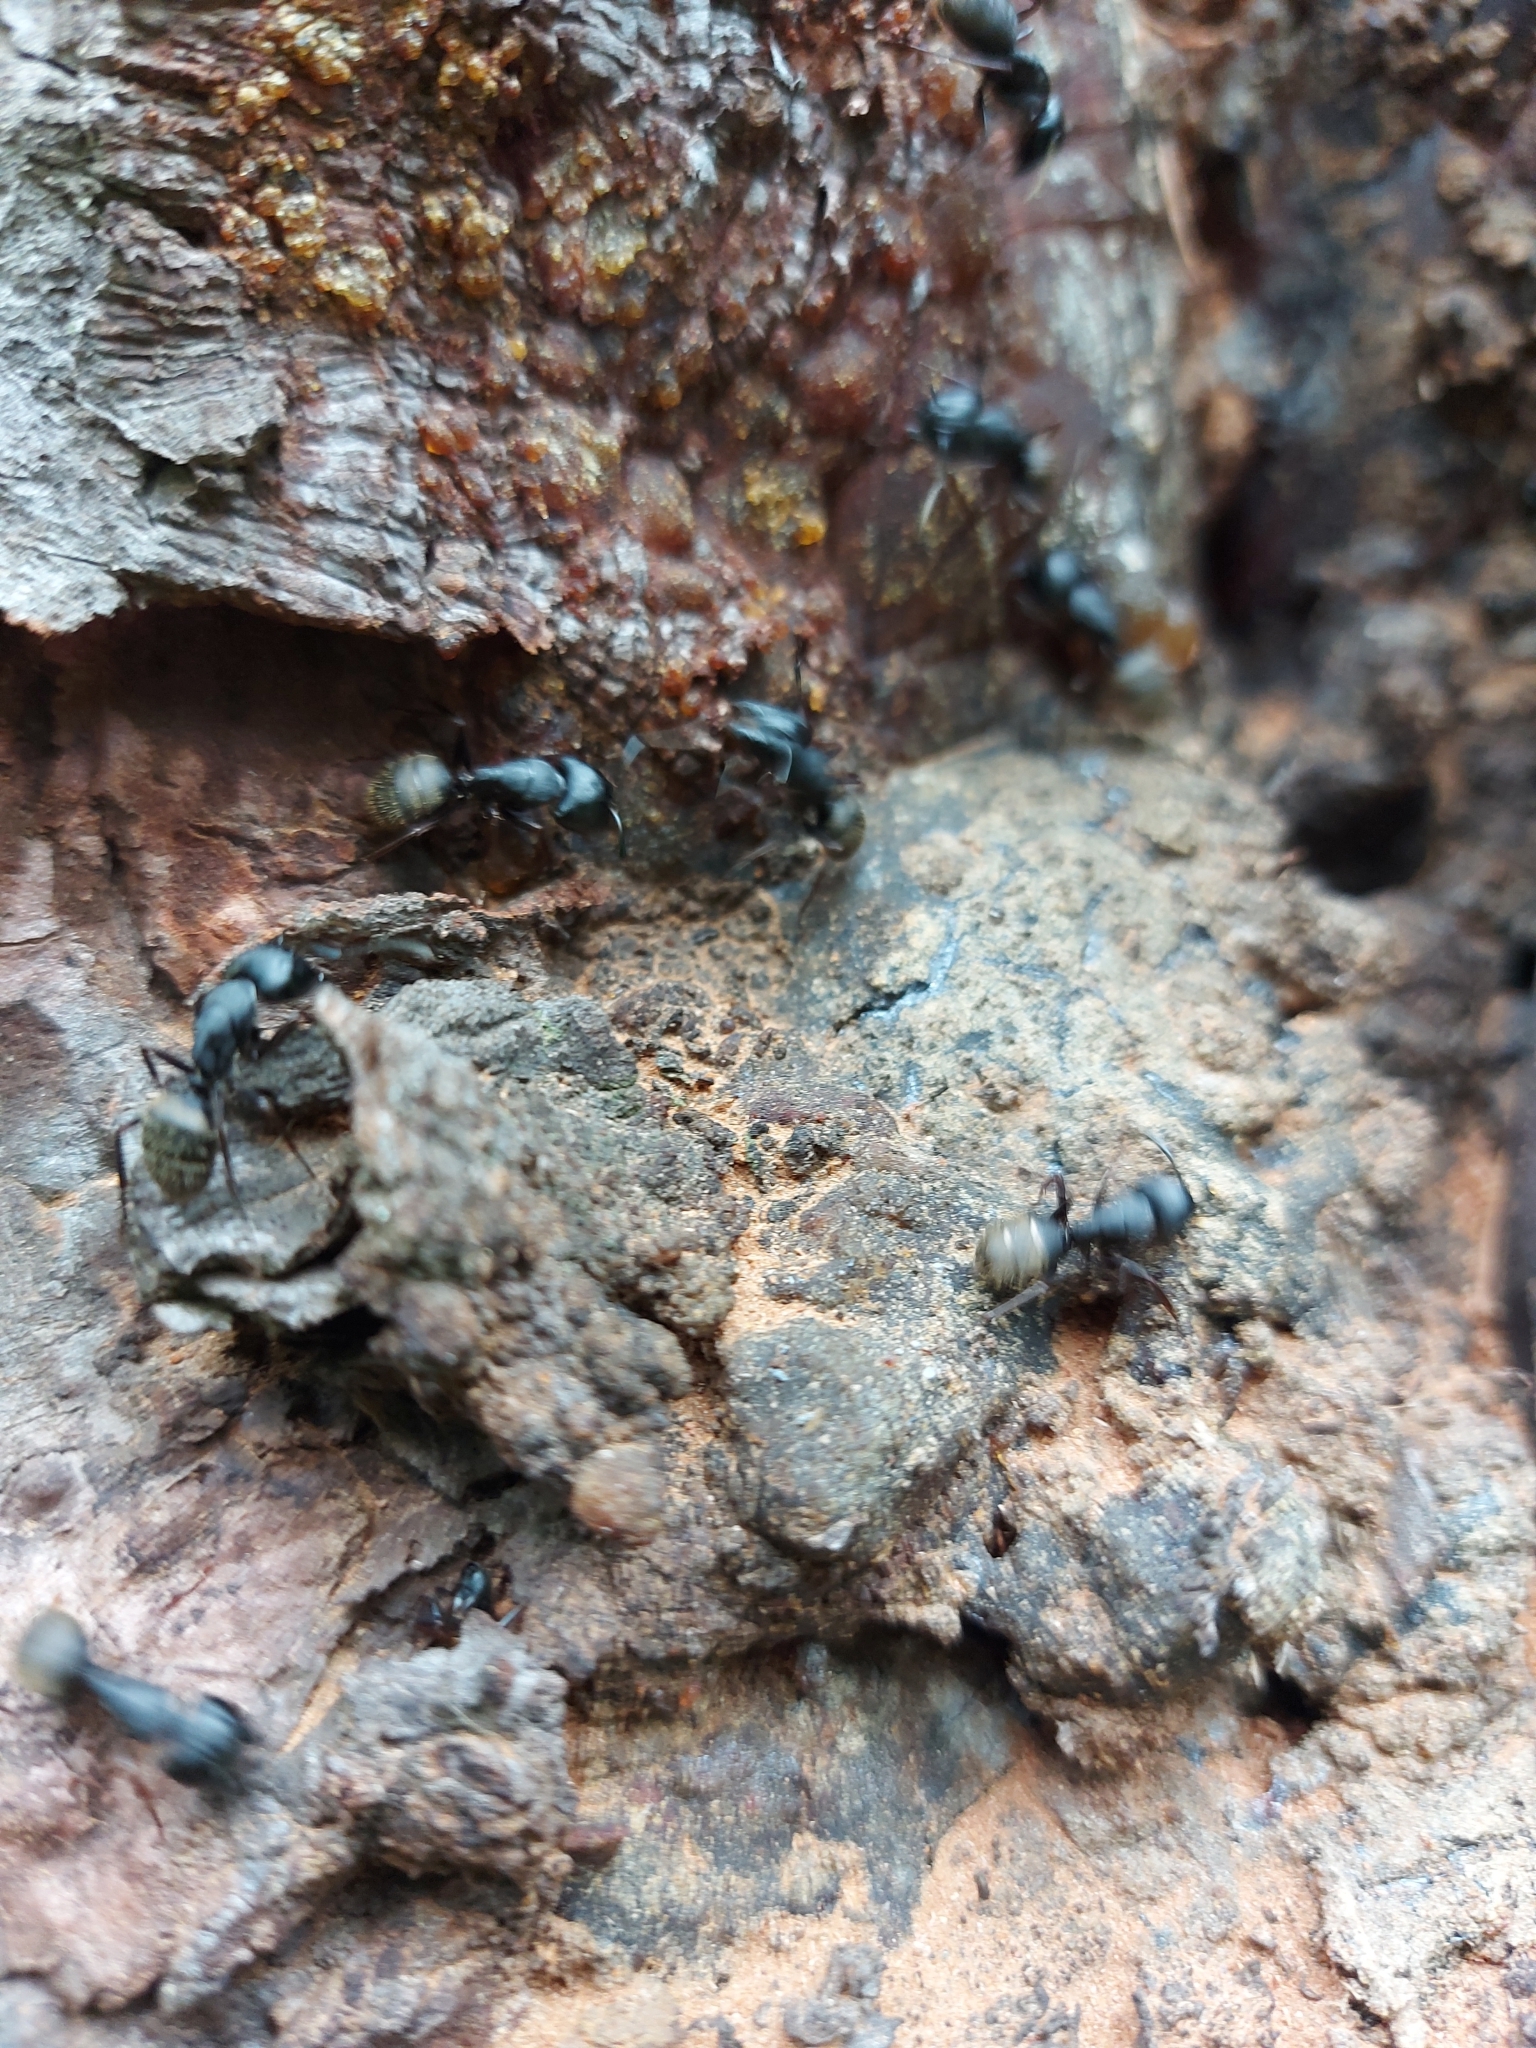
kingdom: Animalia
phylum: Arthropoda
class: Insecta
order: Hymenoptera
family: Formicidae
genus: Camponotus
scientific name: Camponotus modoc
